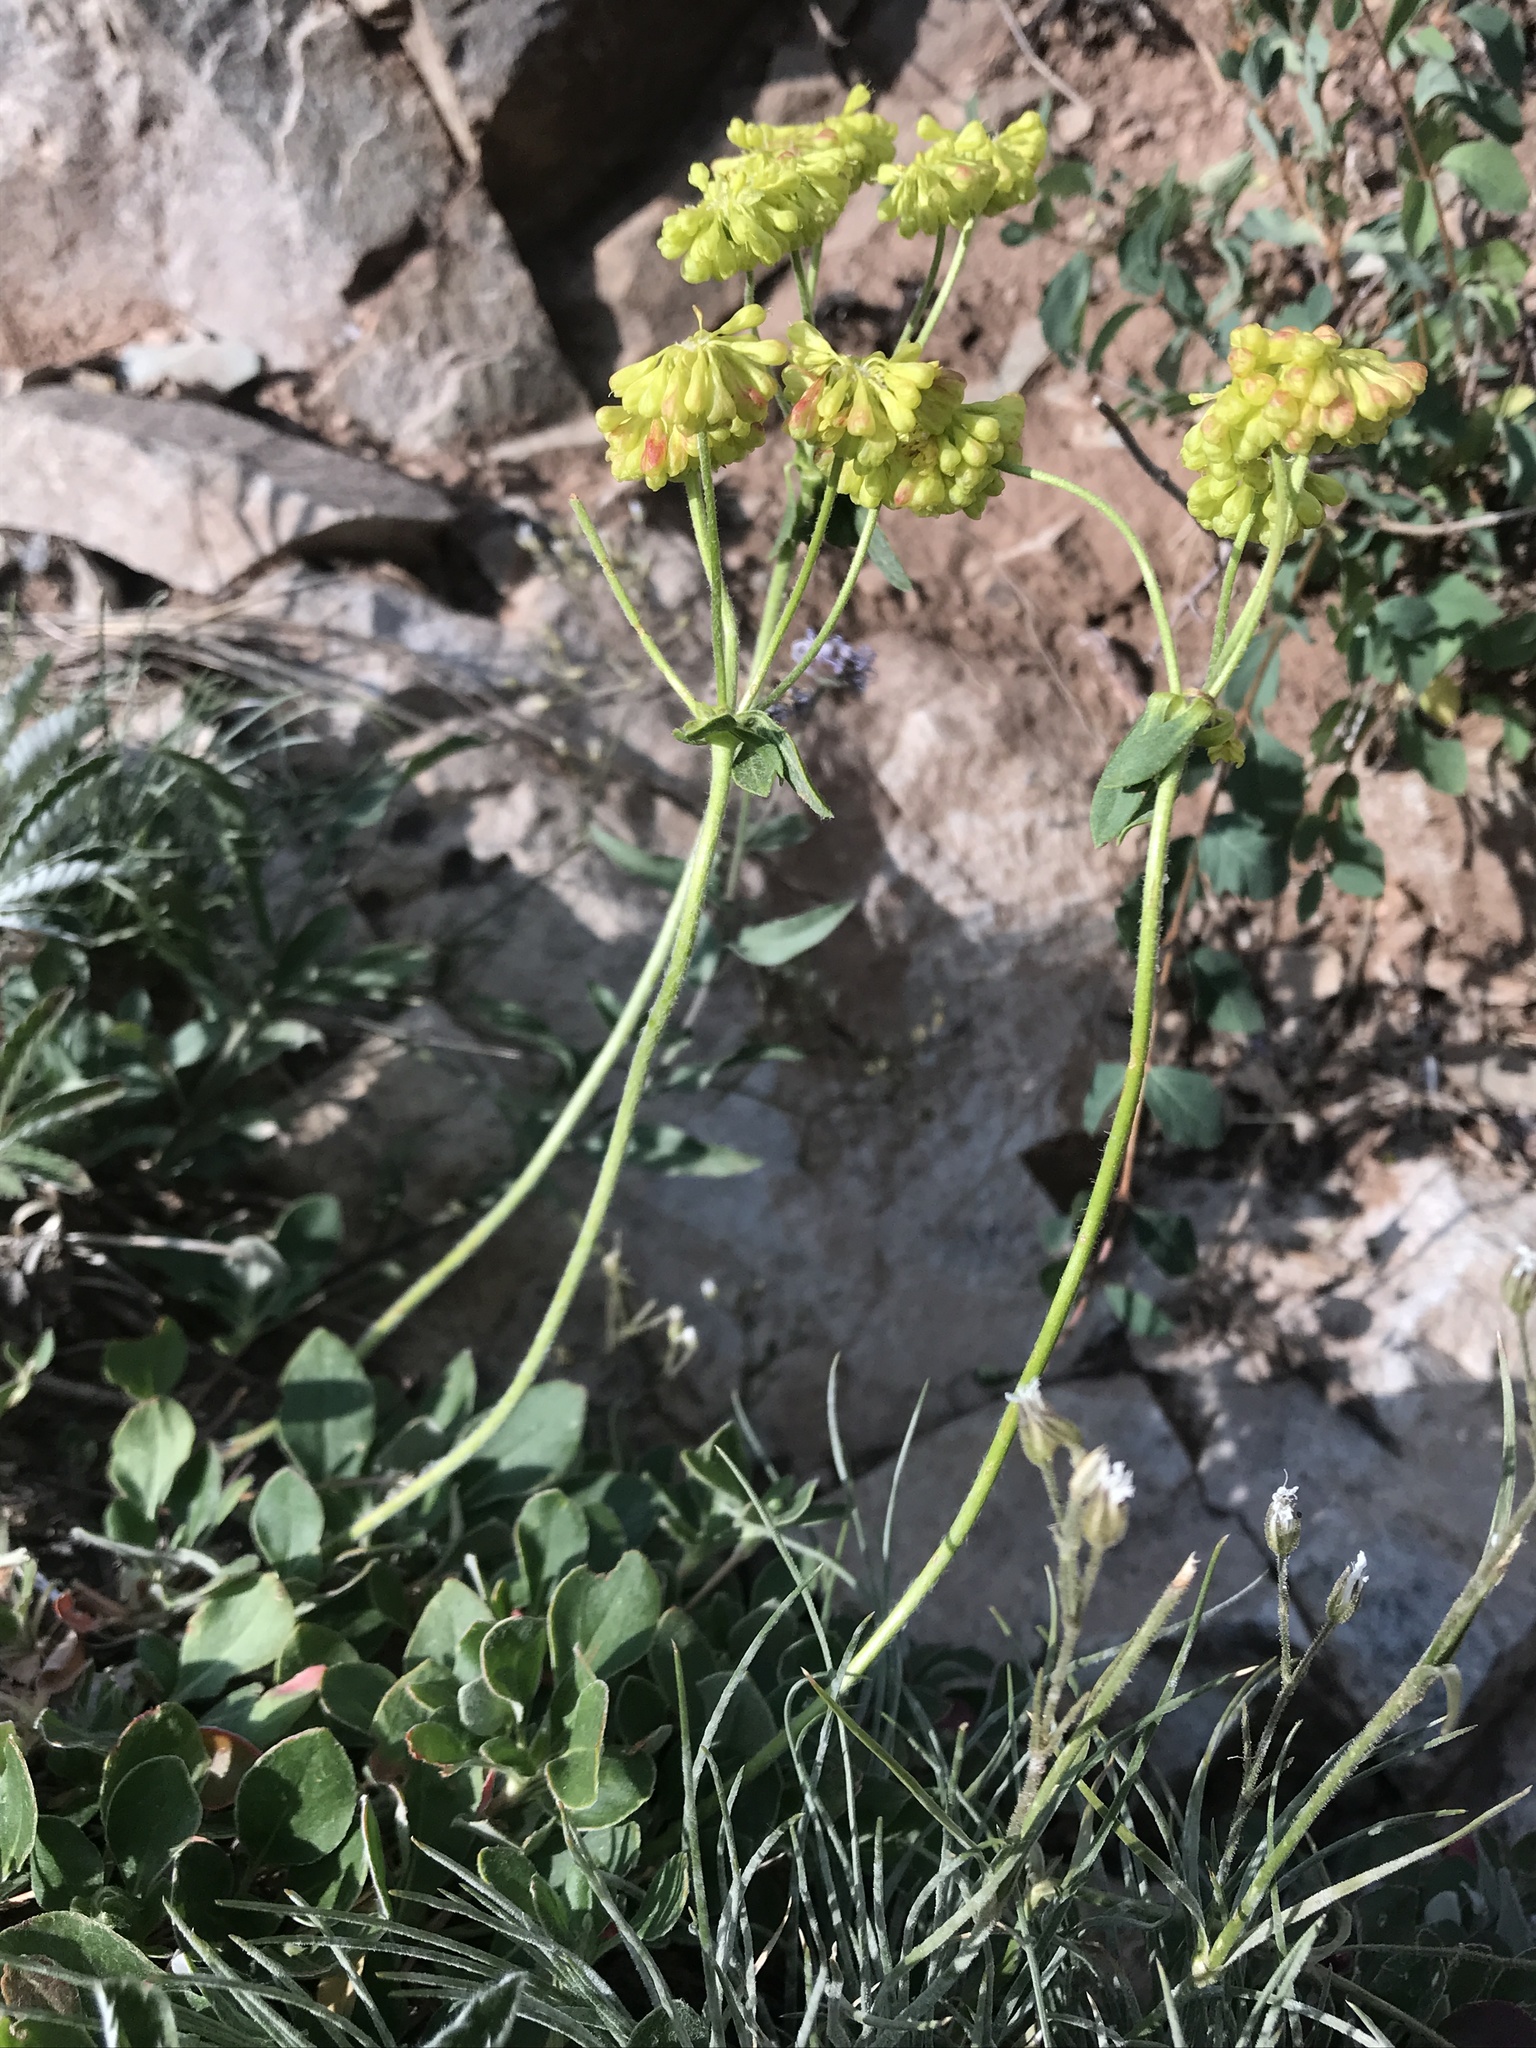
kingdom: Plantae
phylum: Tracheophyta
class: Magnoliopsida
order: Caryophyllales
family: Polygonaceae
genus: Eriogonum
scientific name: Eriogonum umbellatum
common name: Sulfur-buckwheat
